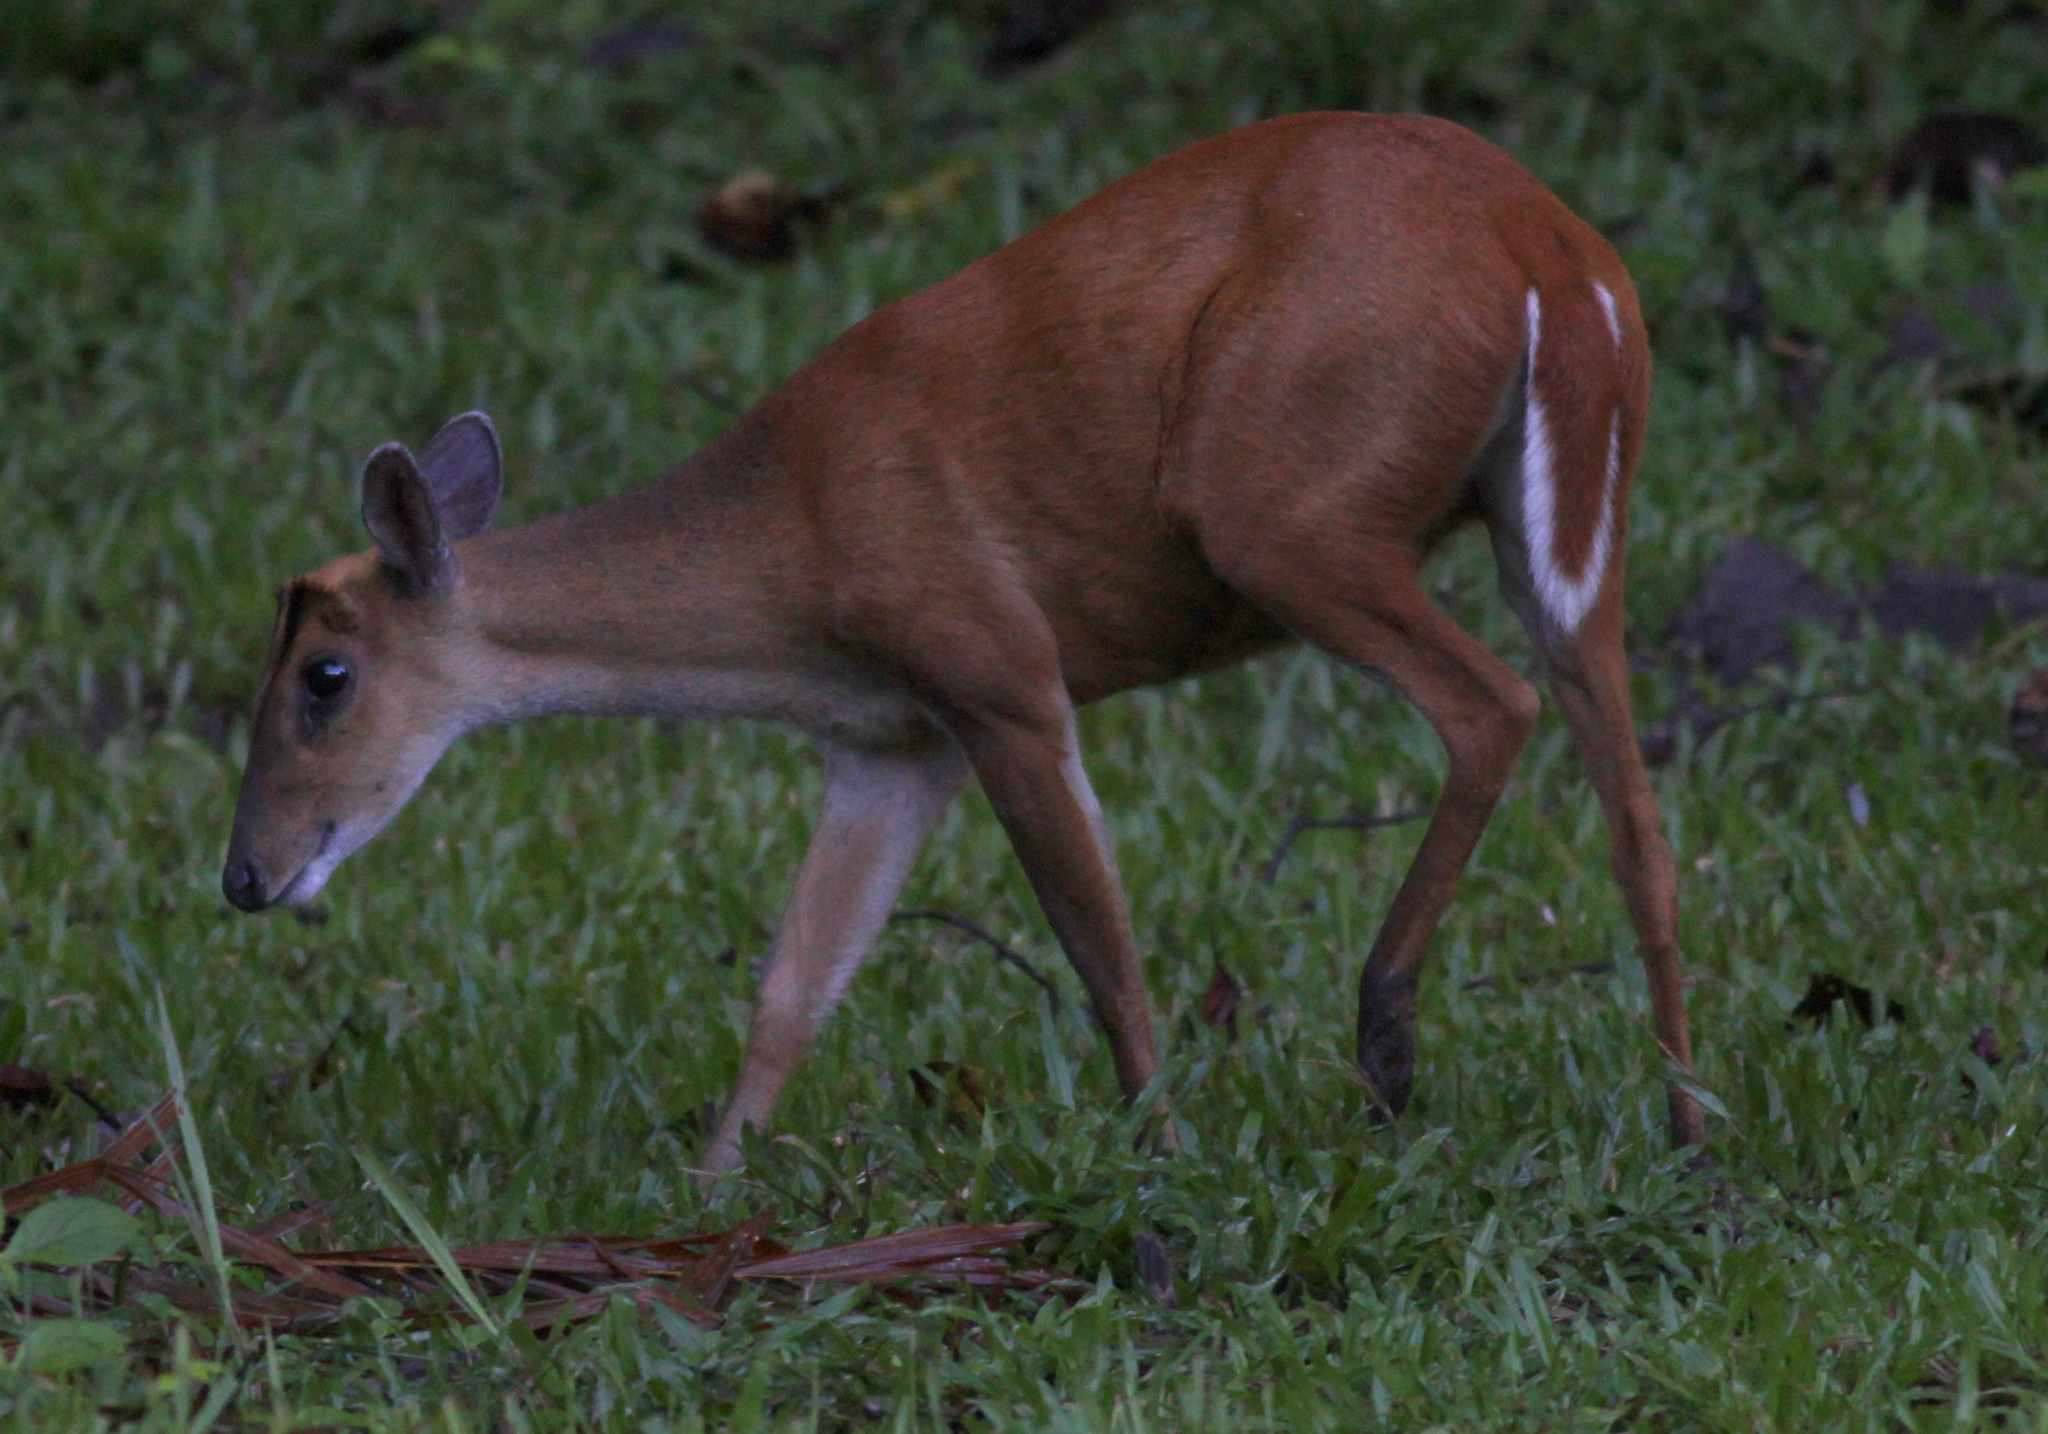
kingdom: Animalia
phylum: Chordata
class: Mammalia
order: Artiodactyla
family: Cervidae
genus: Muntiacus
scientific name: Muntiacus muntjak
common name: Indian muntjac
